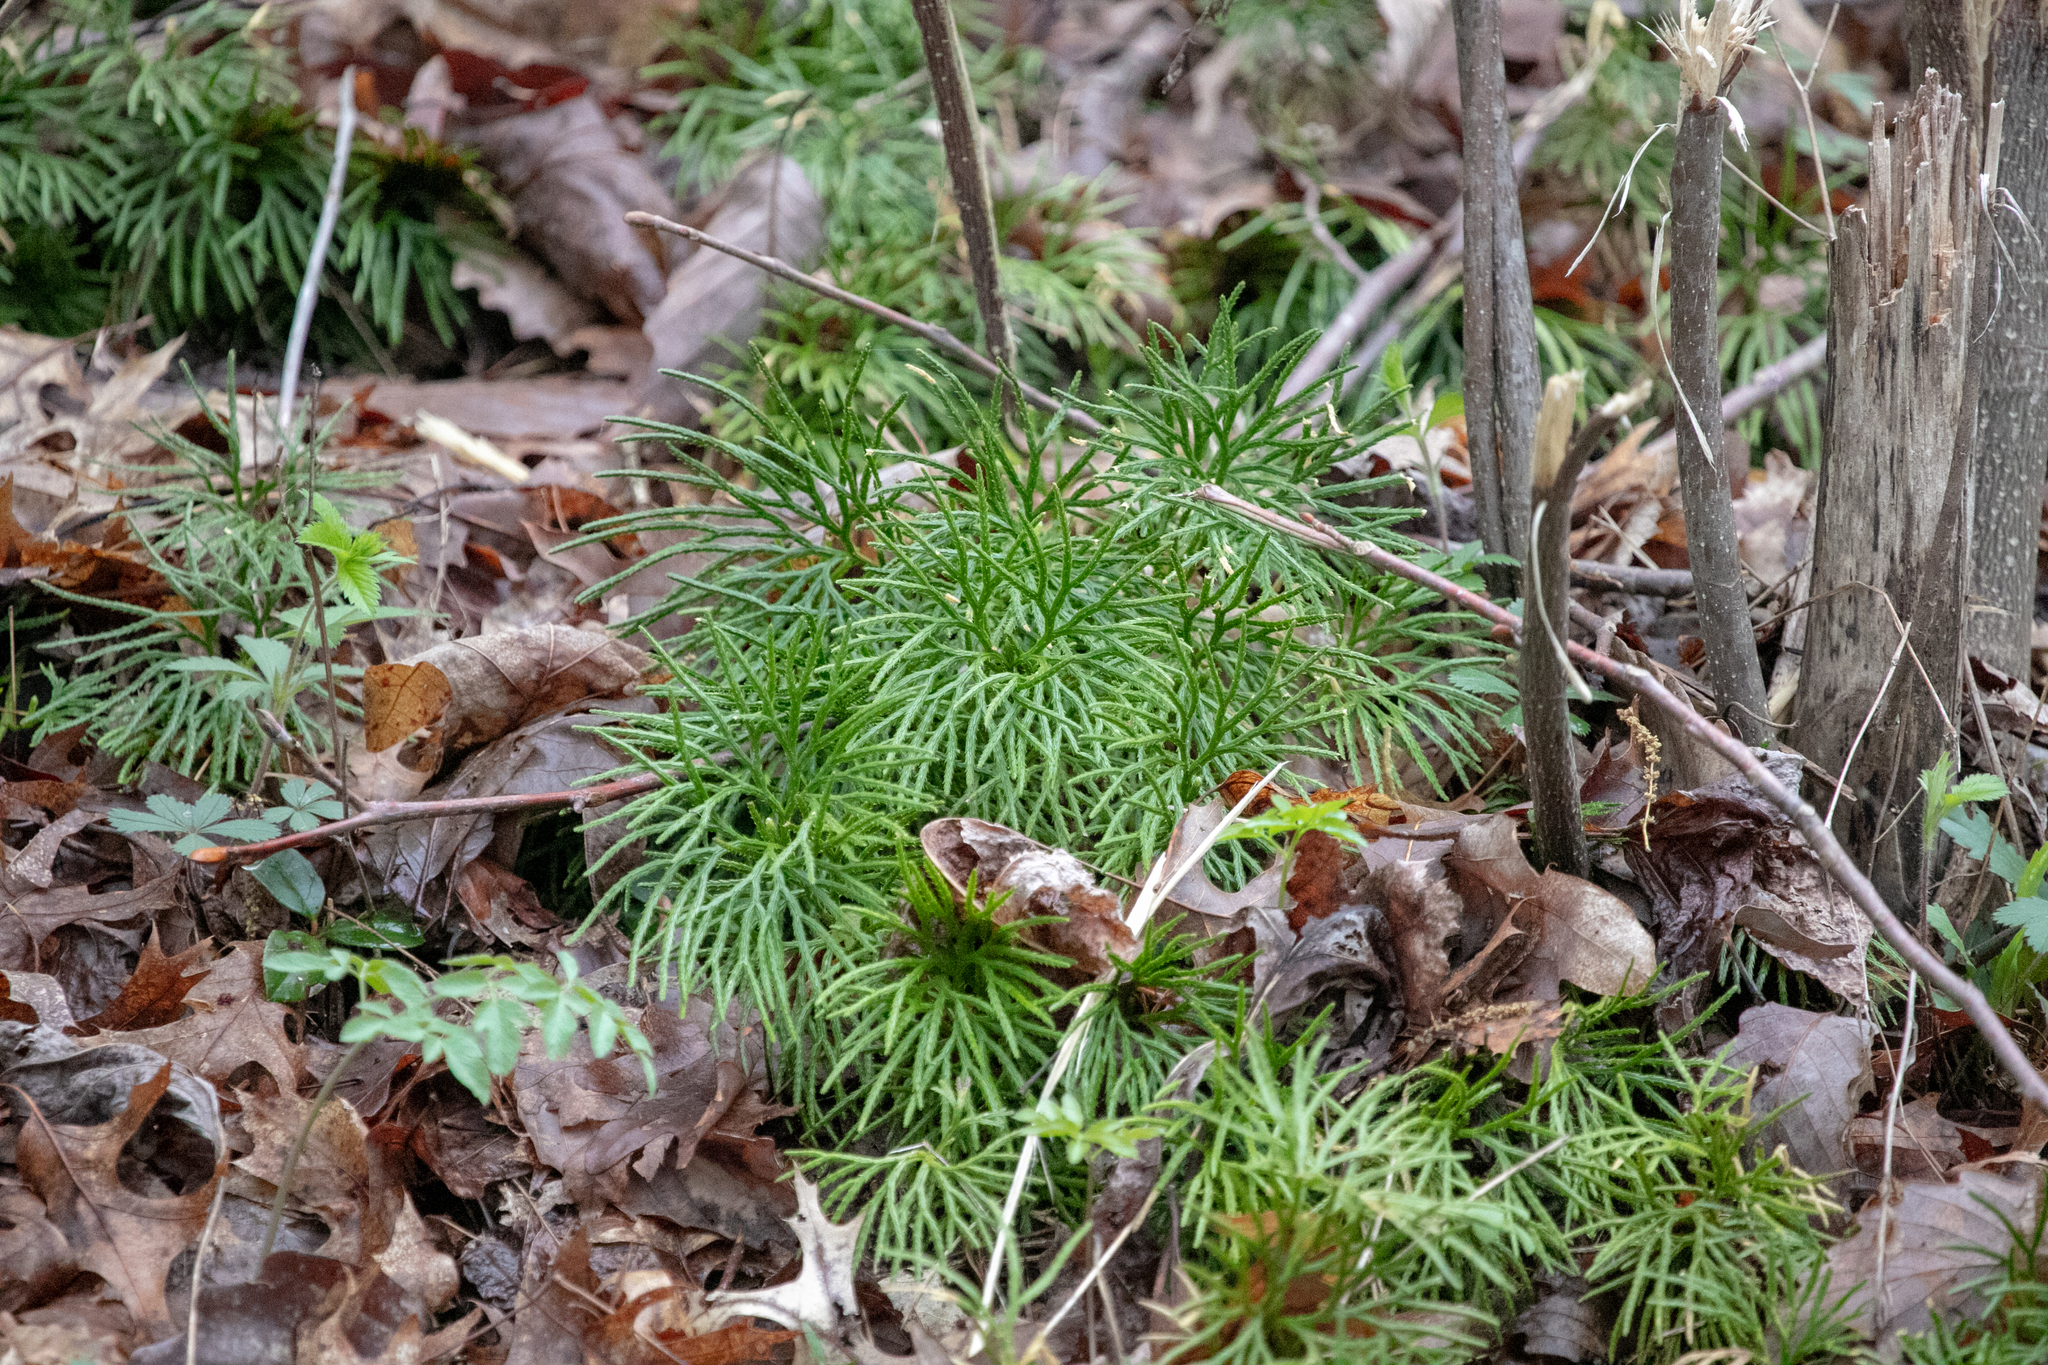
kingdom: Plantae
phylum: Tracheophyta
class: Lycopodiopsida
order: Lycopodiales
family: Lycopodiaceae
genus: Diphasiastrum
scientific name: Diphasiastrum digitatum
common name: Southern running-pine
